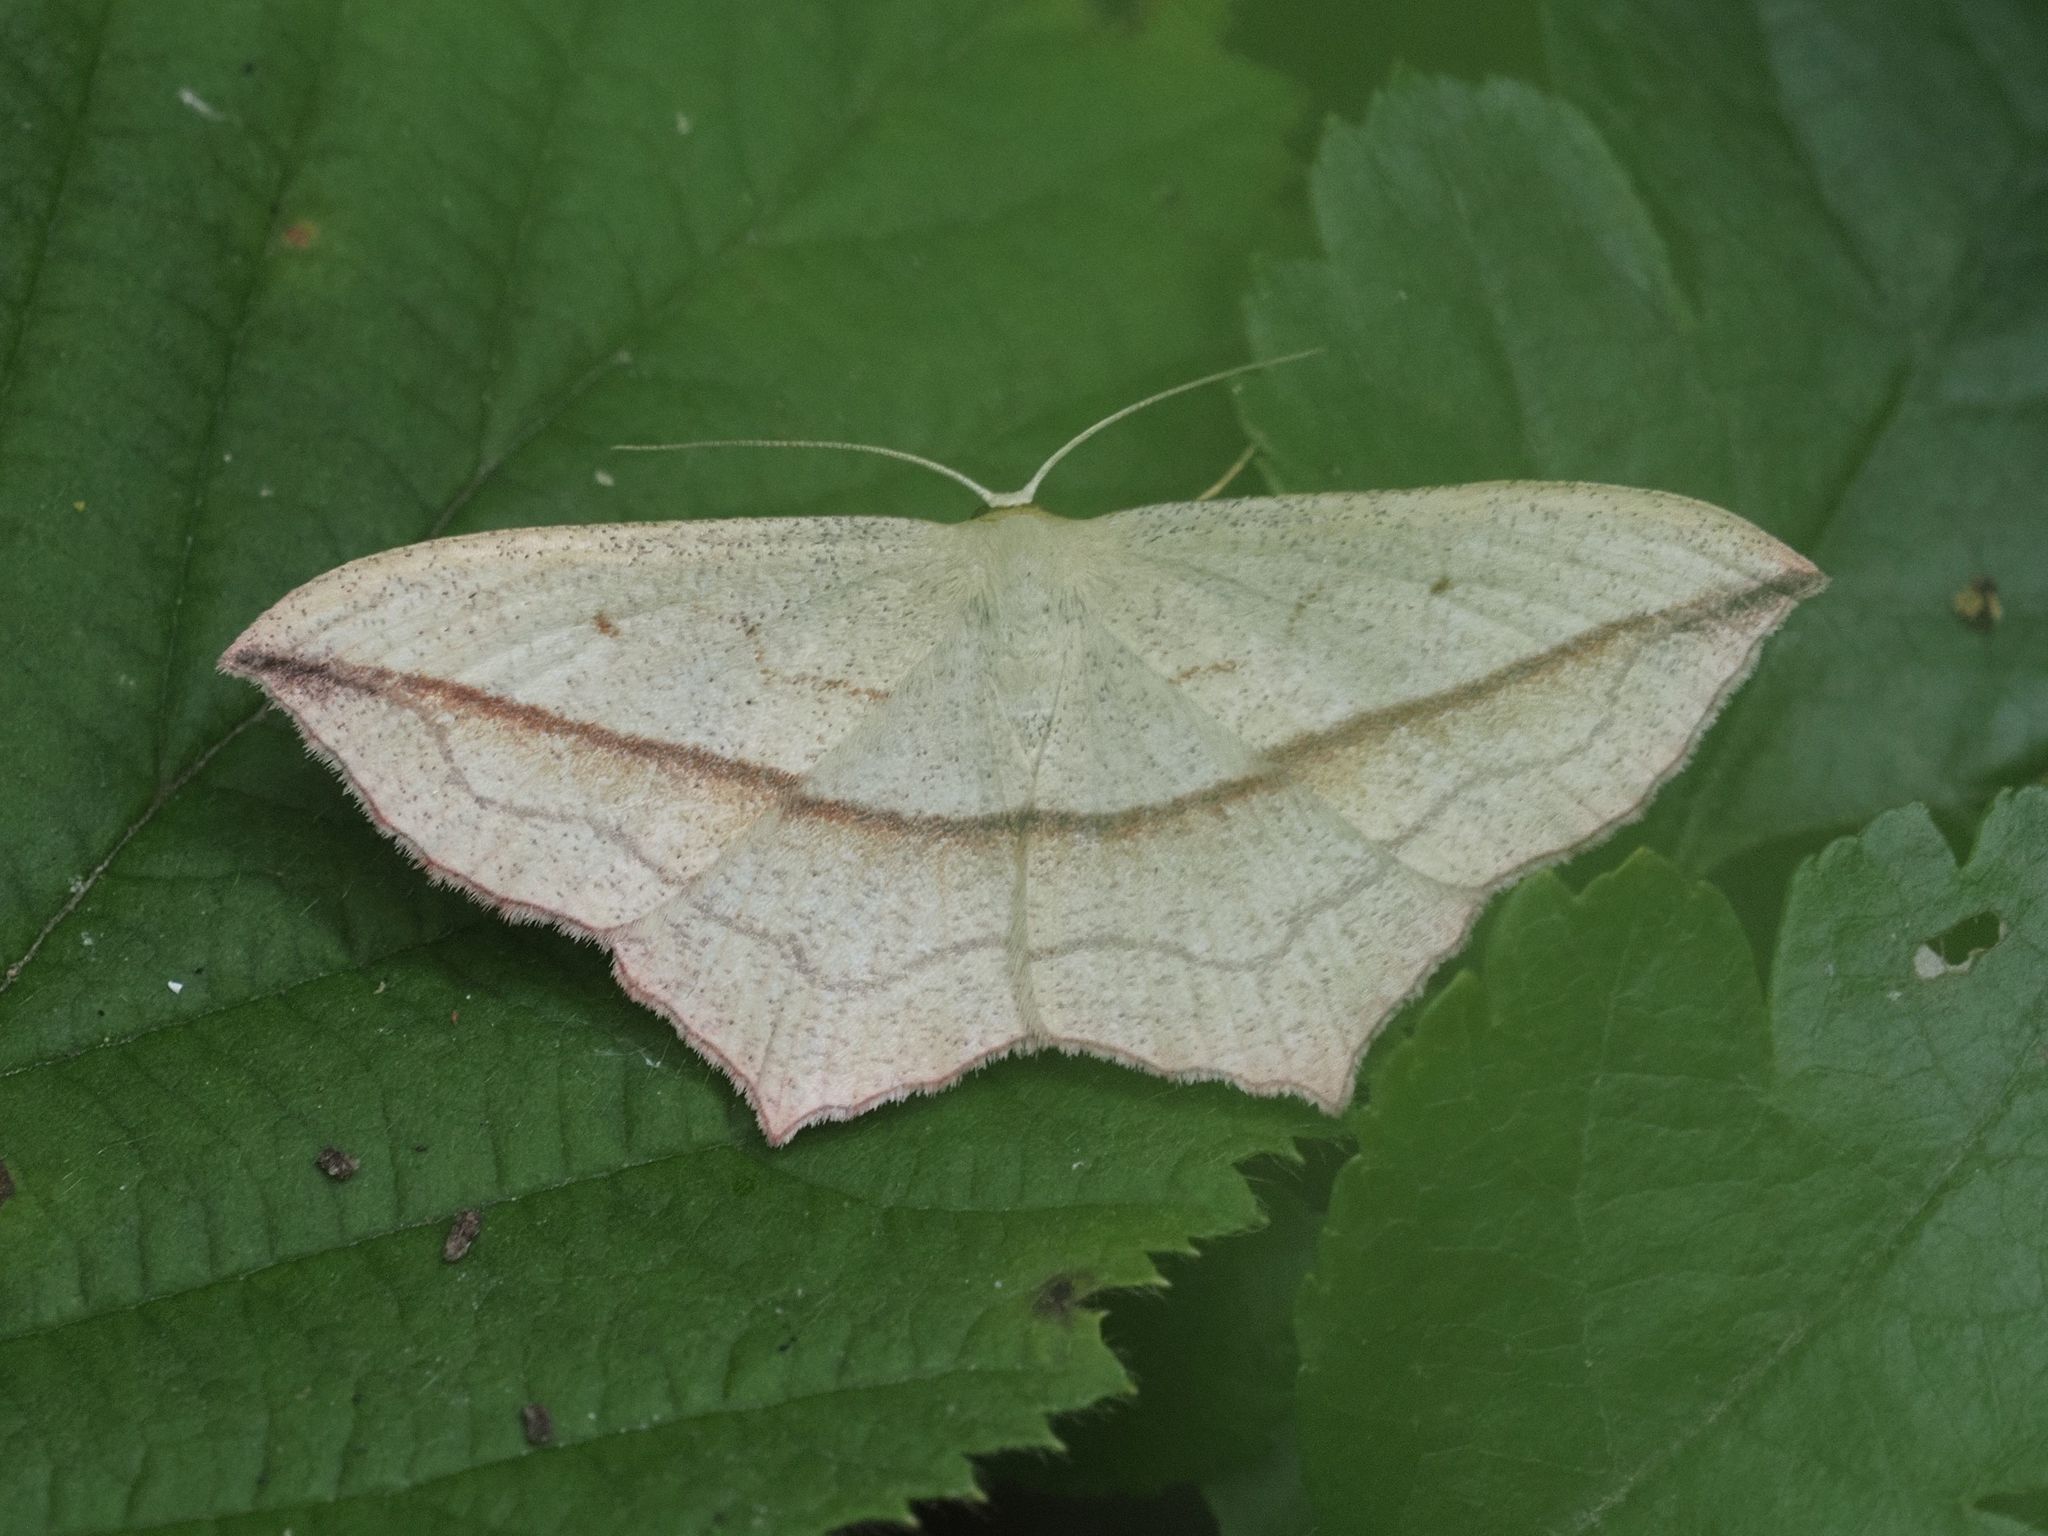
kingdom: Animalia
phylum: Arthropoda
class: Insecta
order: Lepidoptera
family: Geometridae
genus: Timandra
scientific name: Timandra comae
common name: Blood-vein
